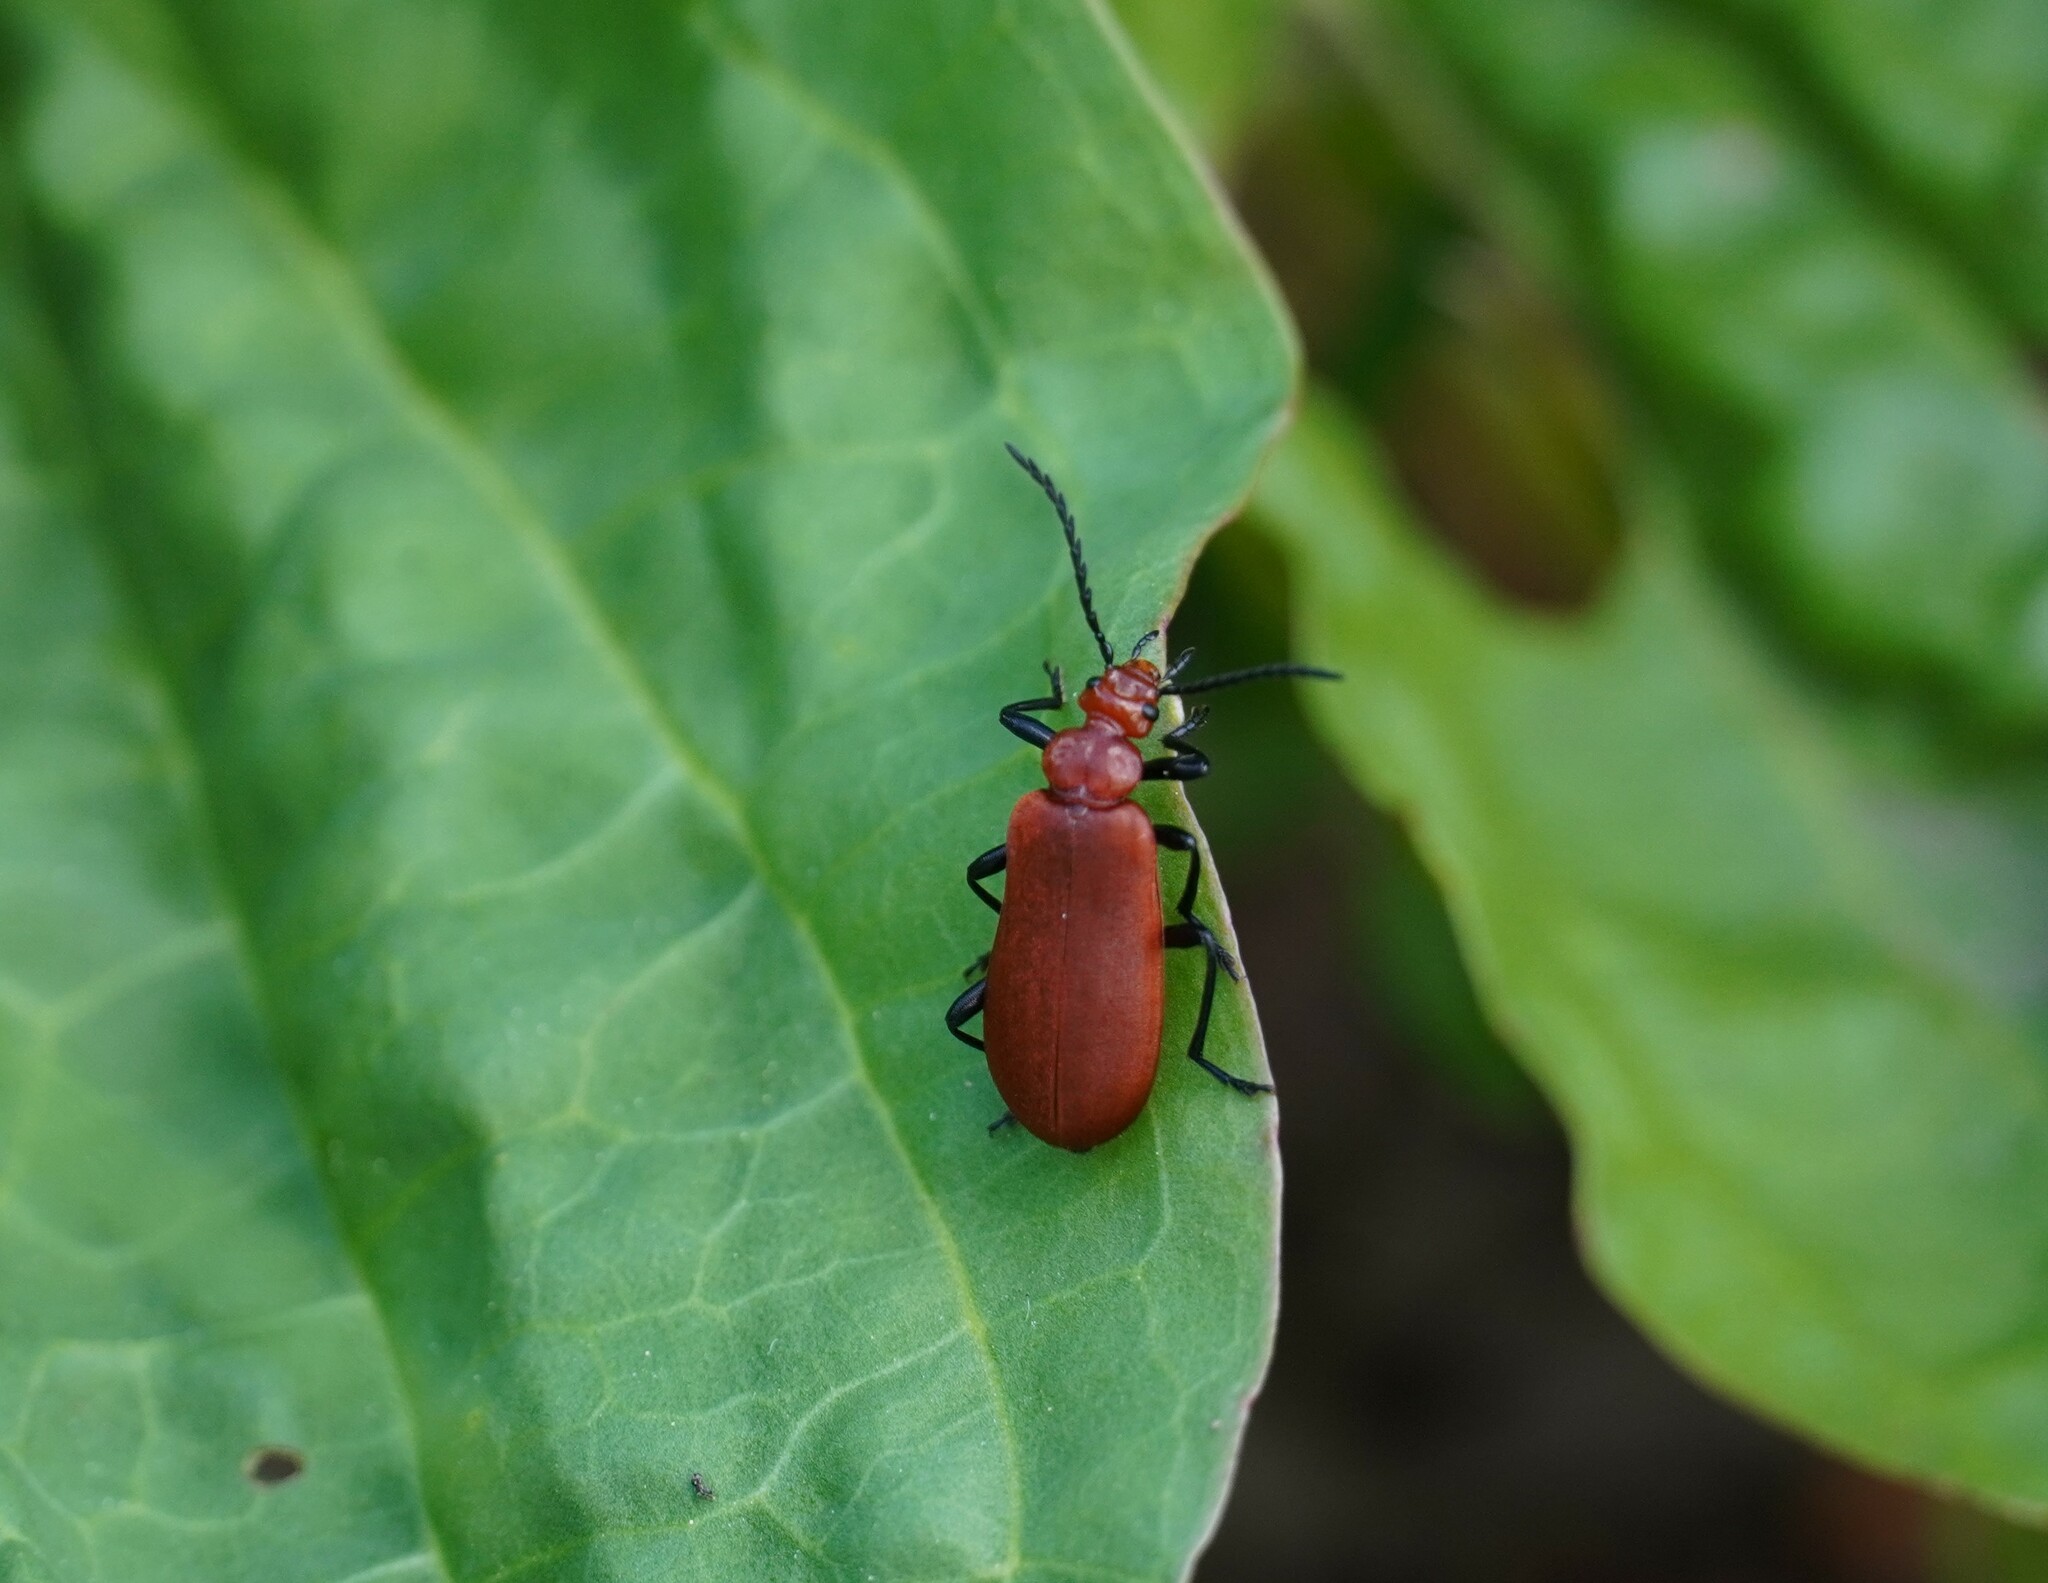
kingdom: Animalia
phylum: Arthropoda
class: Insecta
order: Coleoptera
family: Pyrochroidae
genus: Pyrochroa
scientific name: Pyrochroa serraticornis
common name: Red-headed cardinal beetle
